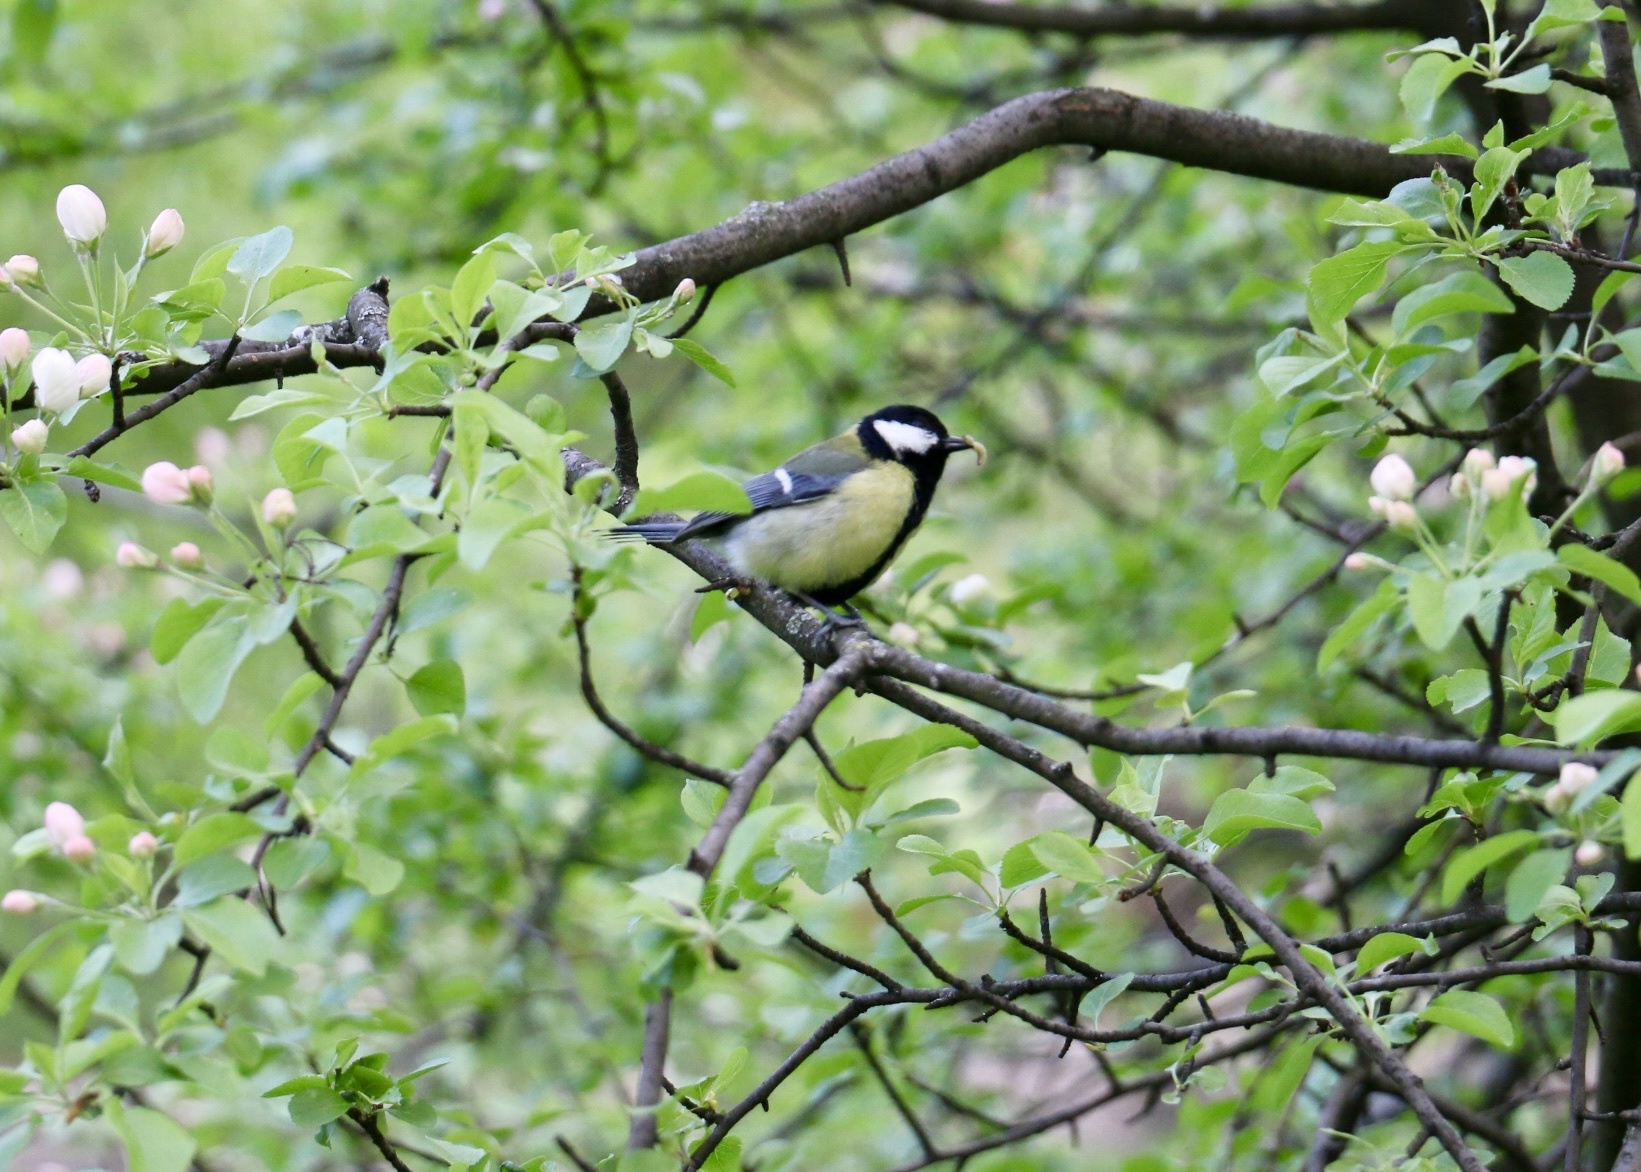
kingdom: Animalia
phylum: Chordata
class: Aves
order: Passeriformes
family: Paridae
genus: Parus
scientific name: Parus major
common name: Great tit
